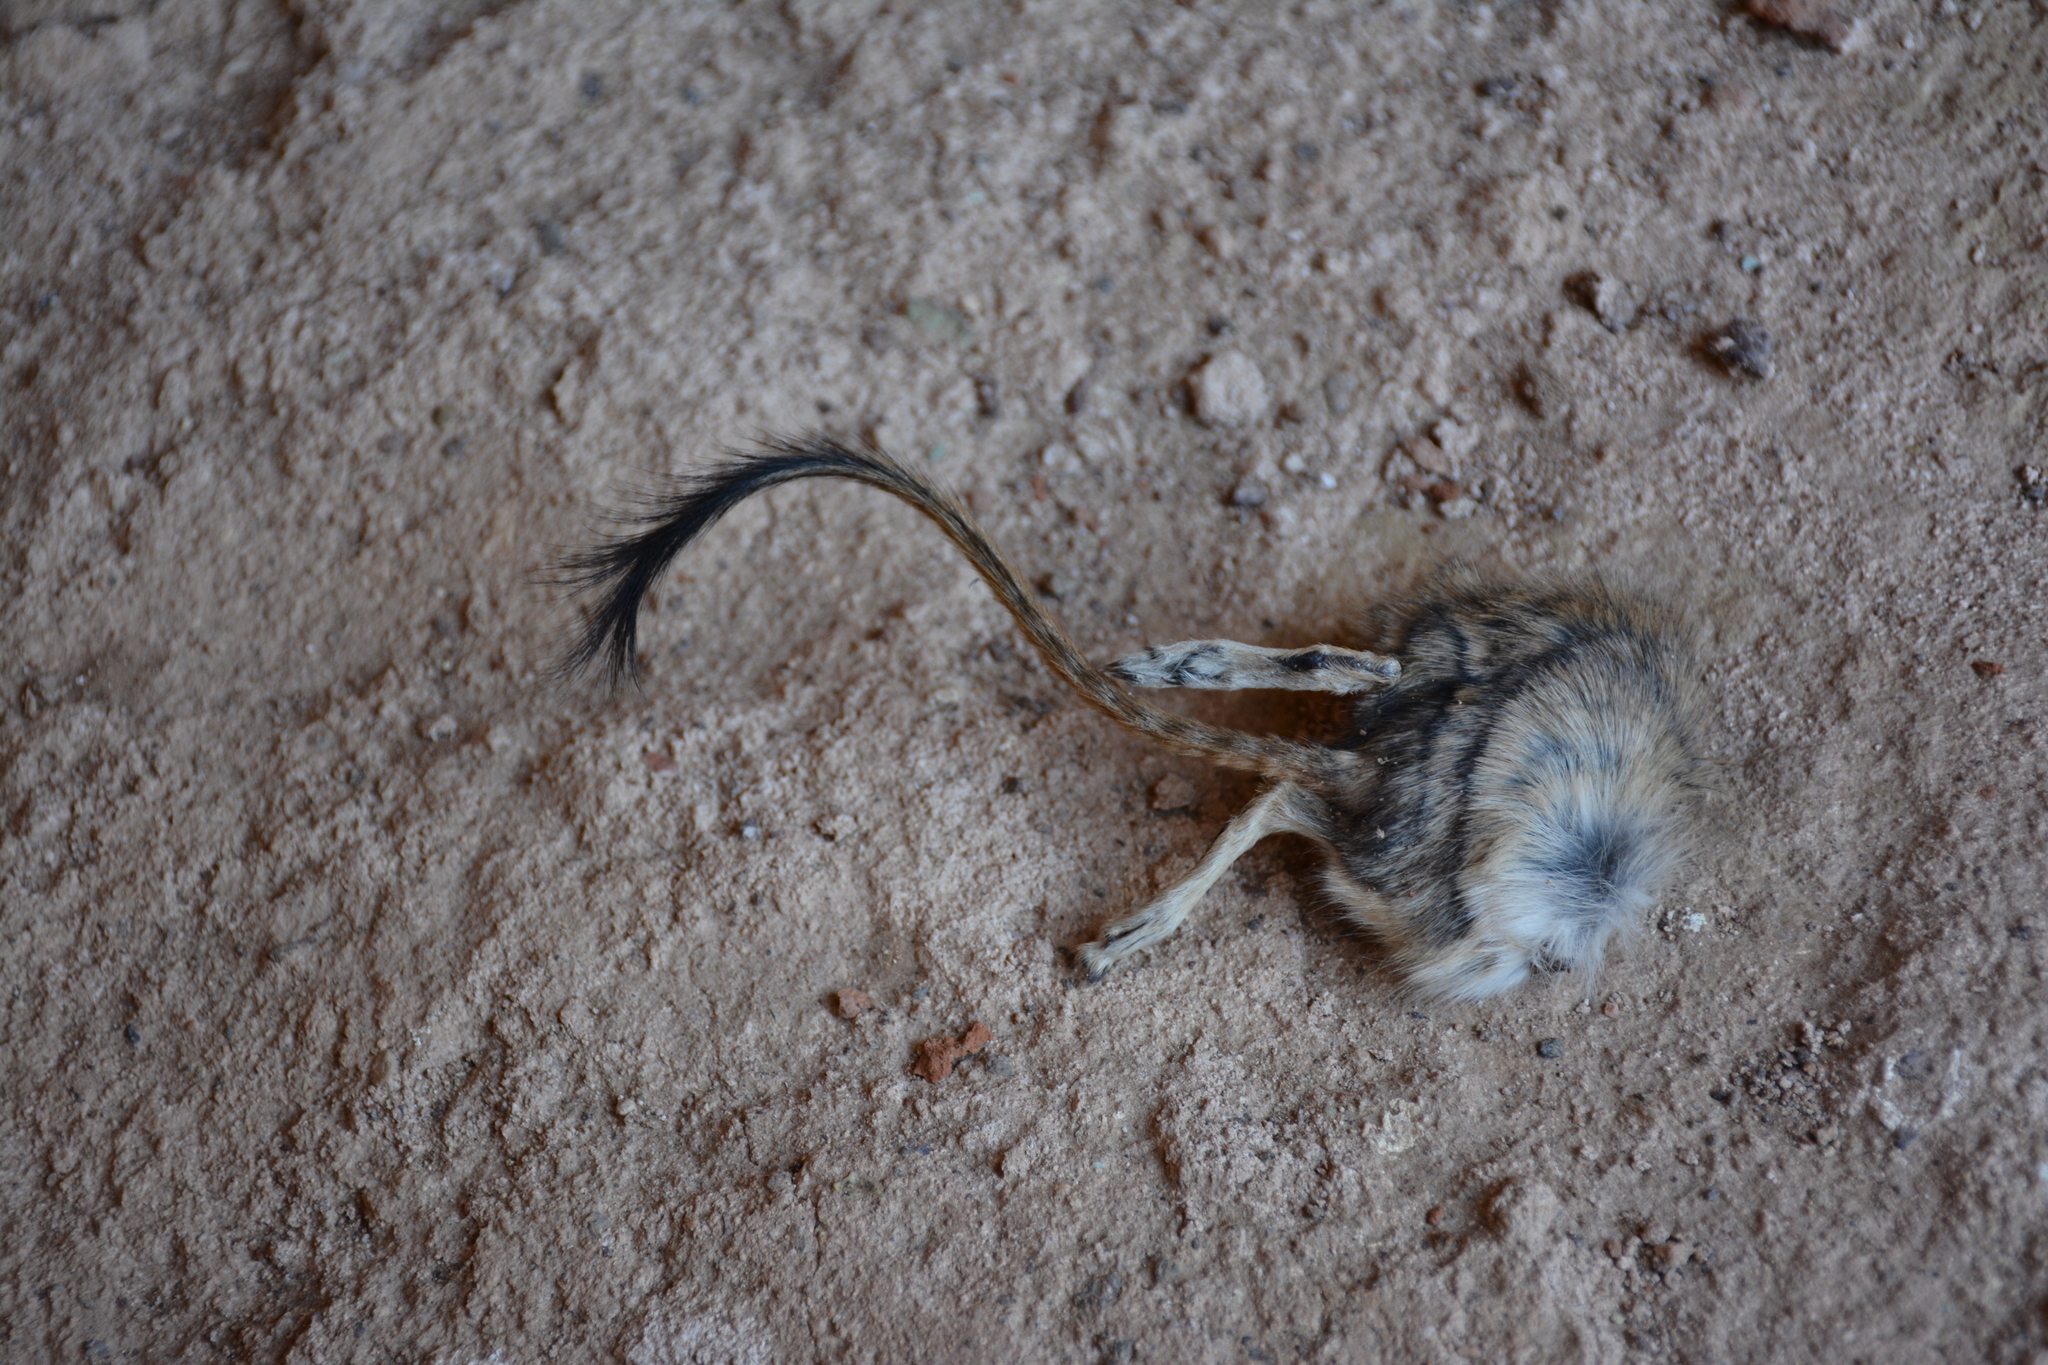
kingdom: Animalia
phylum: Chordata
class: Mammalia
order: Rodentia
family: Muridae
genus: Meriones
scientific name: Meriones libycus
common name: Libyan jird
